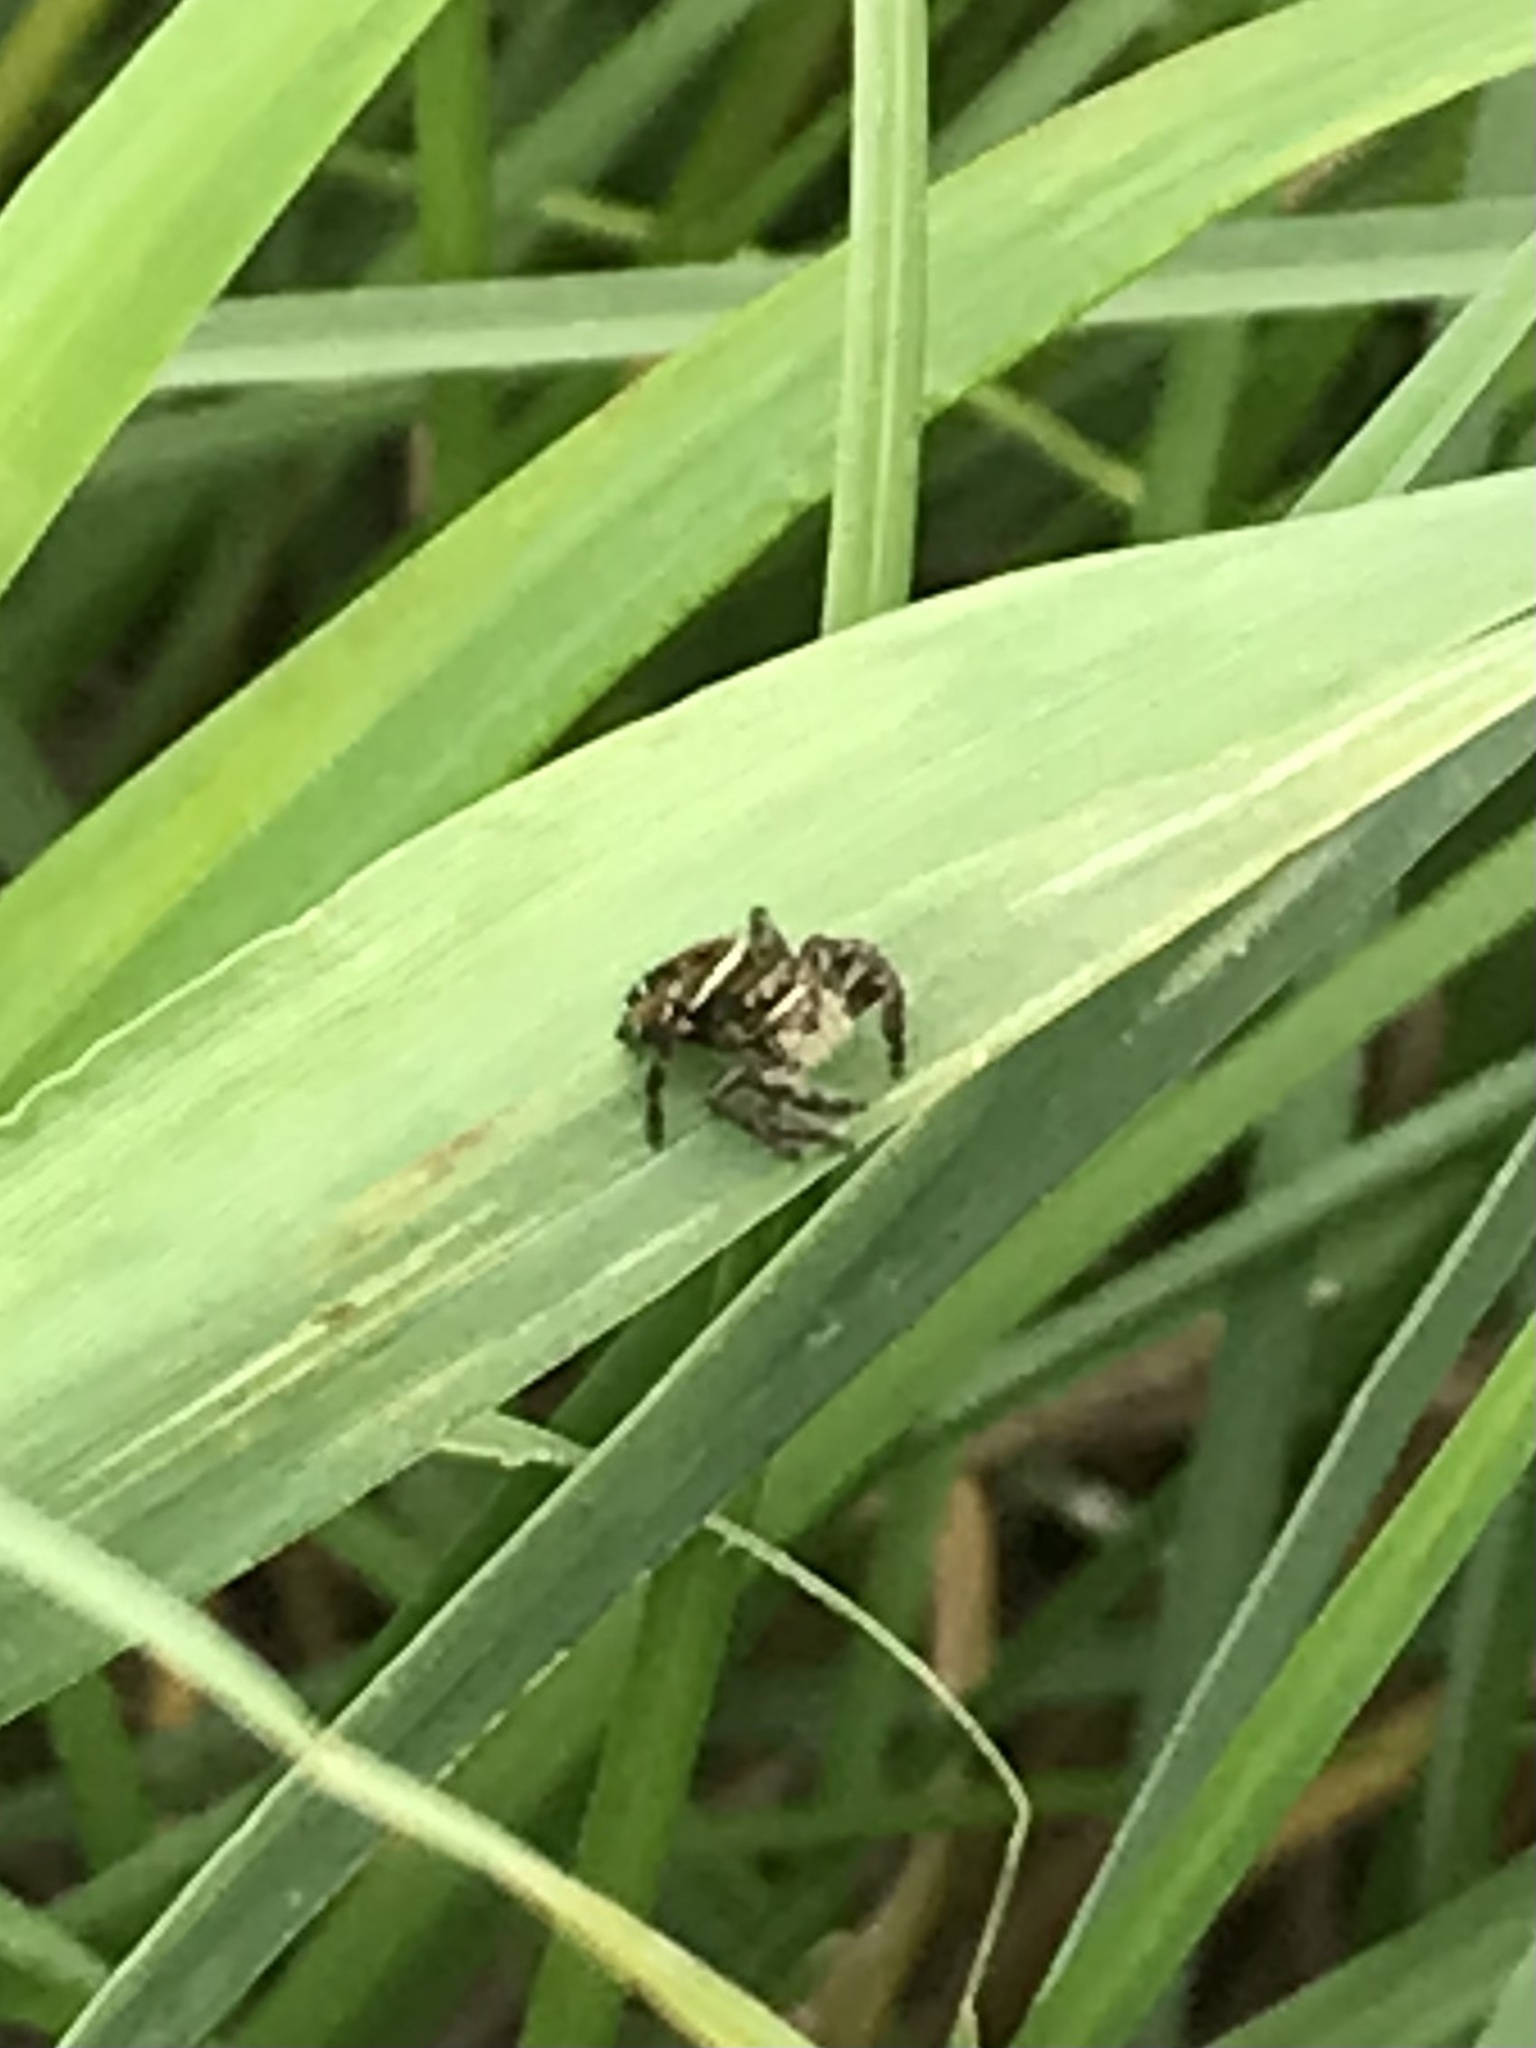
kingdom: Animalia
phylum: Arthropoda
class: Arachnida
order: Araneae
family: Salticidae
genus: Phidippus
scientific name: Phidippus clarus
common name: Brilliant jumping spider
